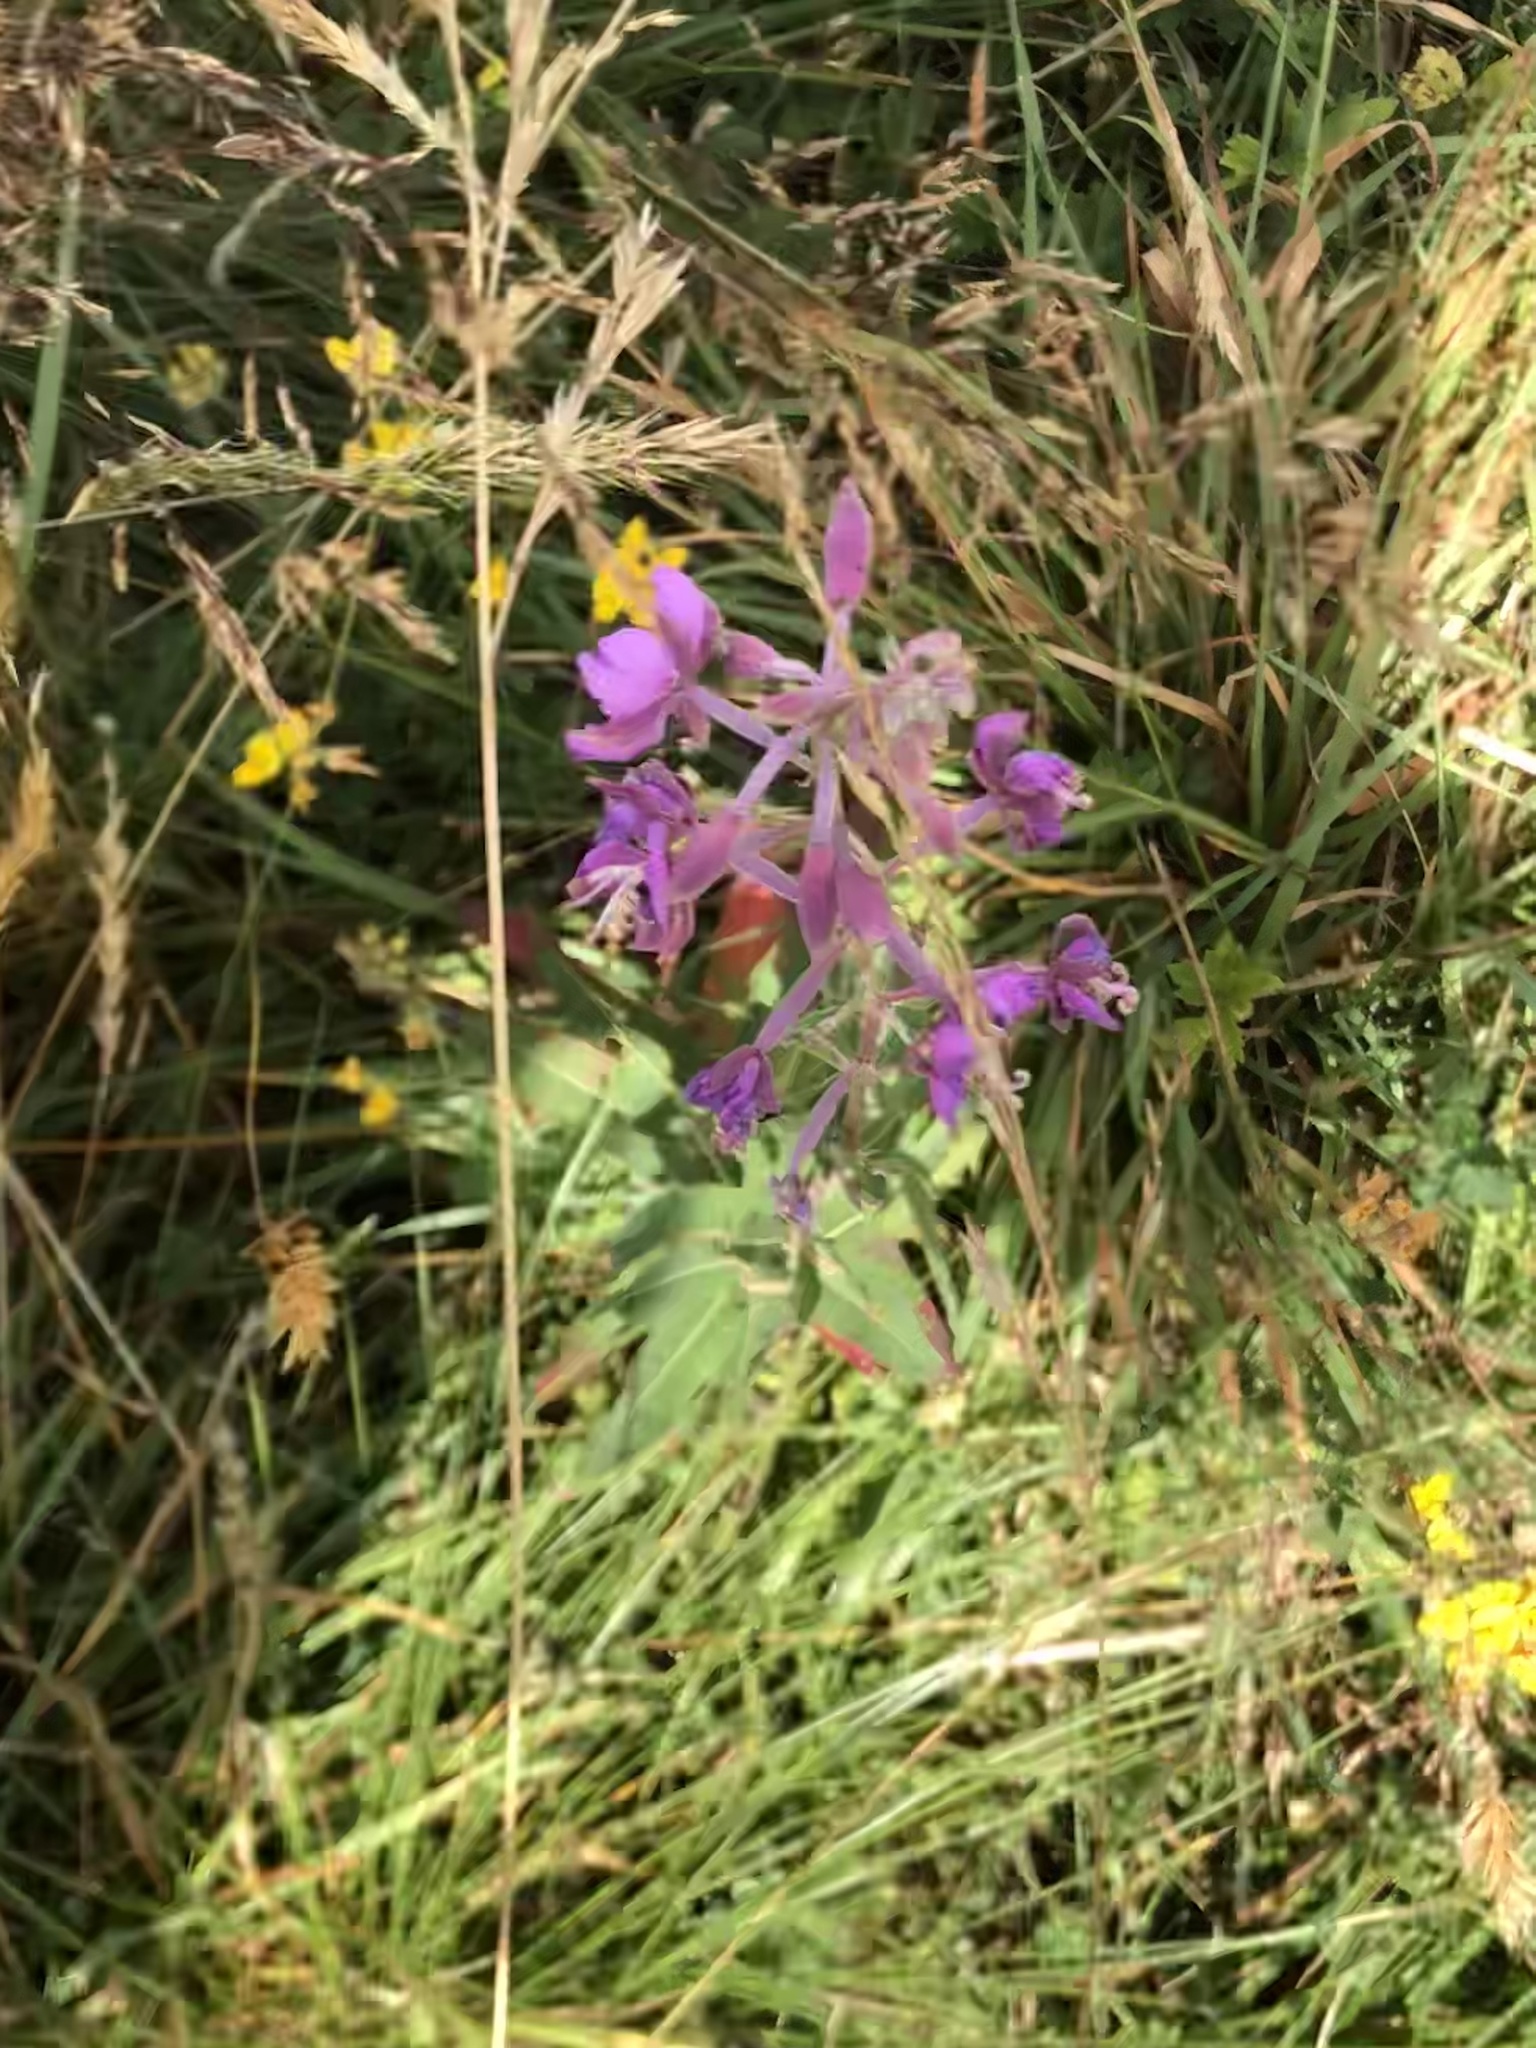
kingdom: Plantae
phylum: Tracheophyta
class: Magnoliopsida
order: Myrtales
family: Onagraceae
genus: Chamaenerion
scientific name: Chamaenerion angustifolium
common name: Fireweed
